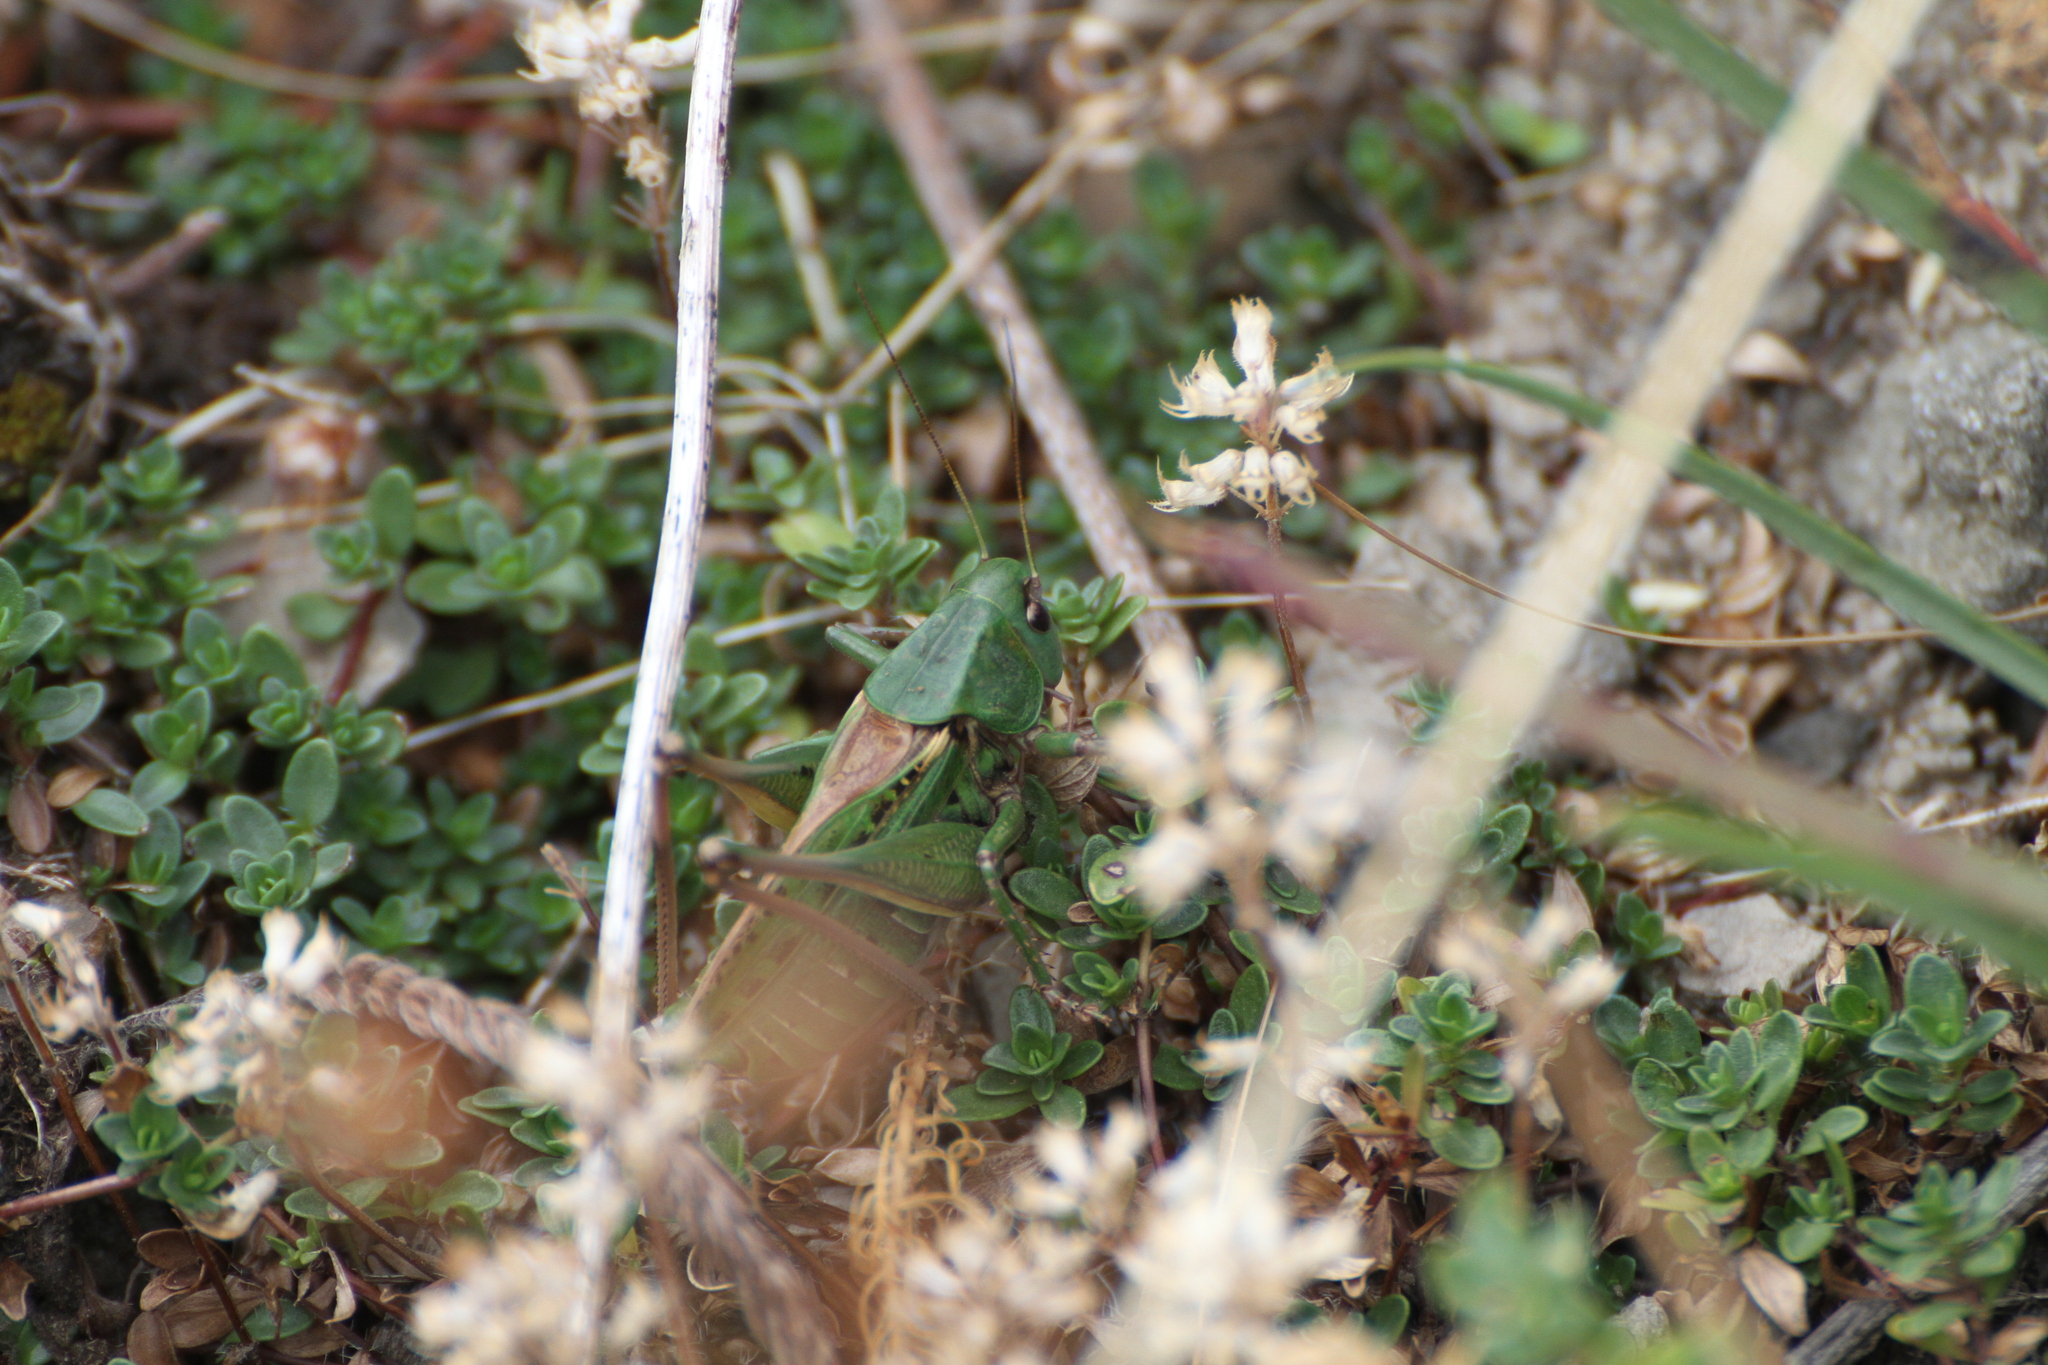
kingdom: Animalia
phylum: Arthropoda
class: Insecta
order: Orthoptera
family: Tettigoniidae
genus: Decticus
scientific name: Decticus verrucivorus
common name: Wart-biter
